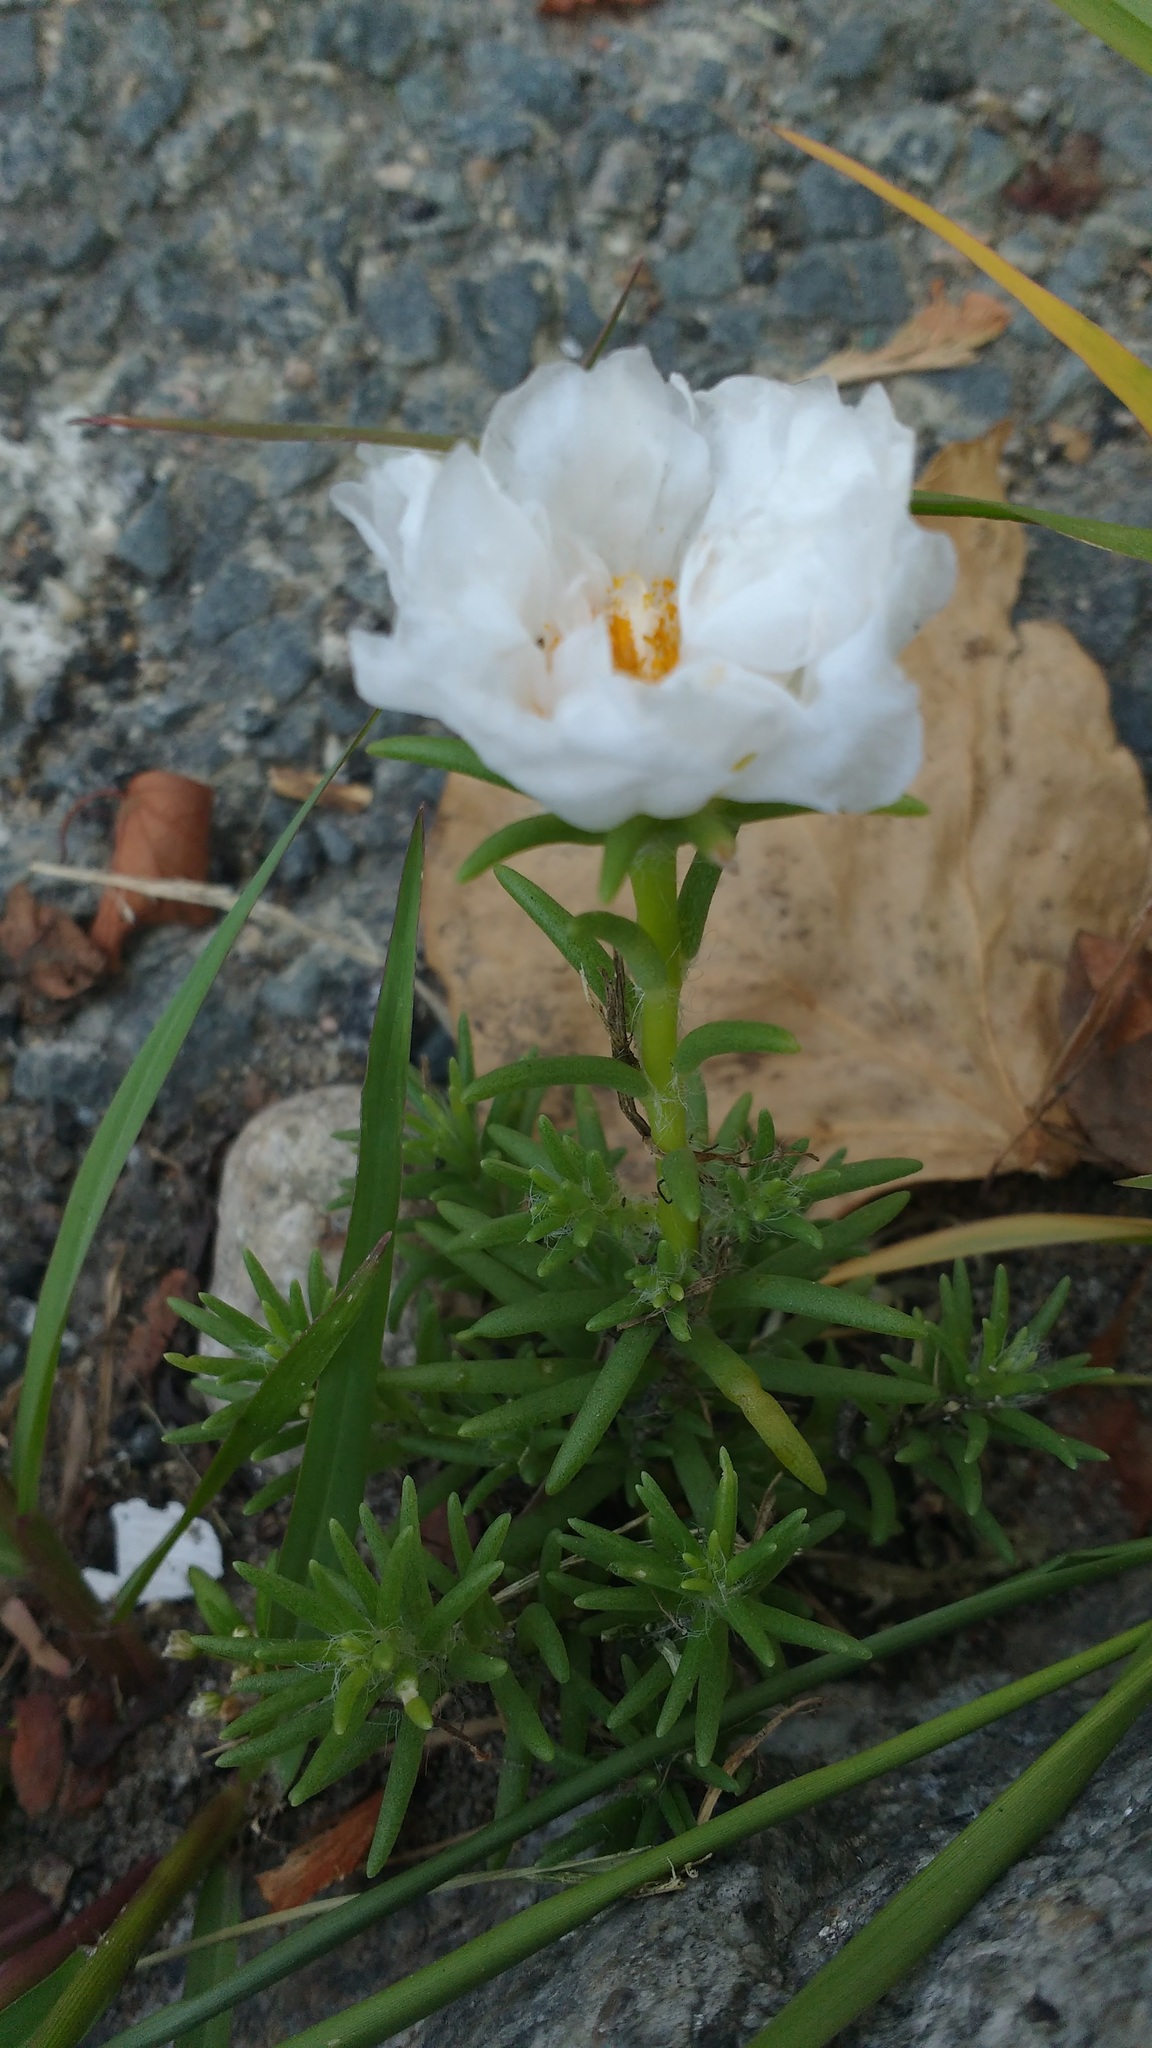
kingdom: Plantae
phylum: Tracheophyta
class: Magnoliopsida
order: Caryophyllales
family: Portulacaceae
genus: Portulaca
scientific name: Portulaca grandiflora
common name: Moss-rose
